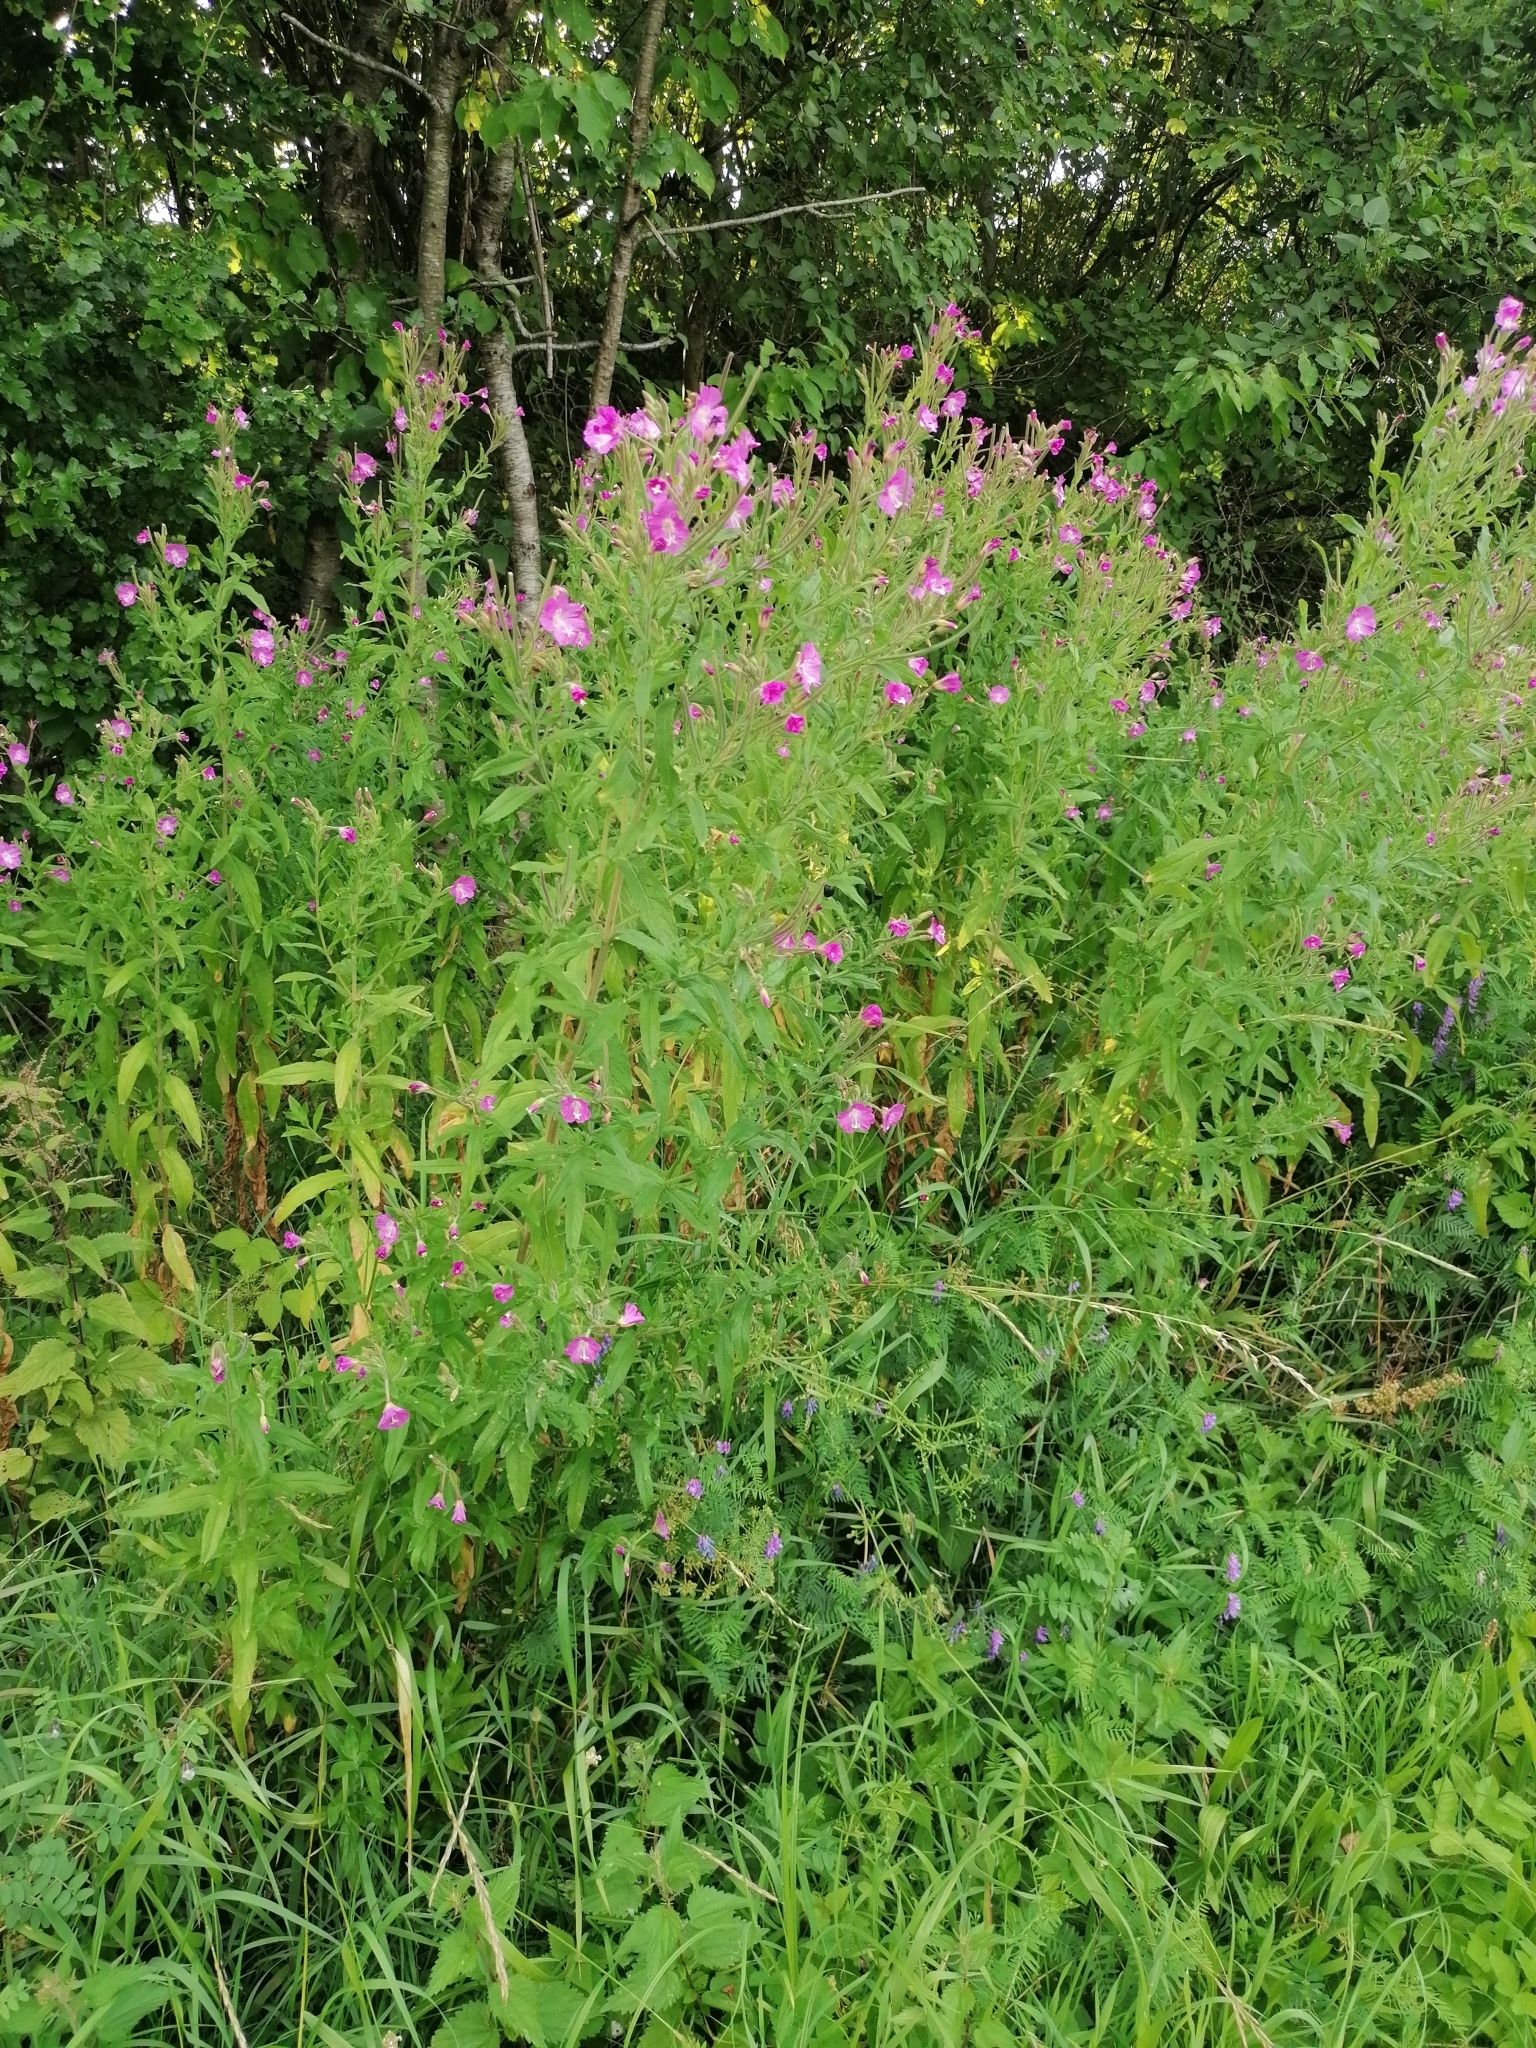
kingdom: Plantae
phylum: Tracheophyta
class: Magnoliopsida
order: Myrtales
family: Onagraceae
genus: Epilobium
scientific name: Epilobium hirsutum
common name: Great willowherb
